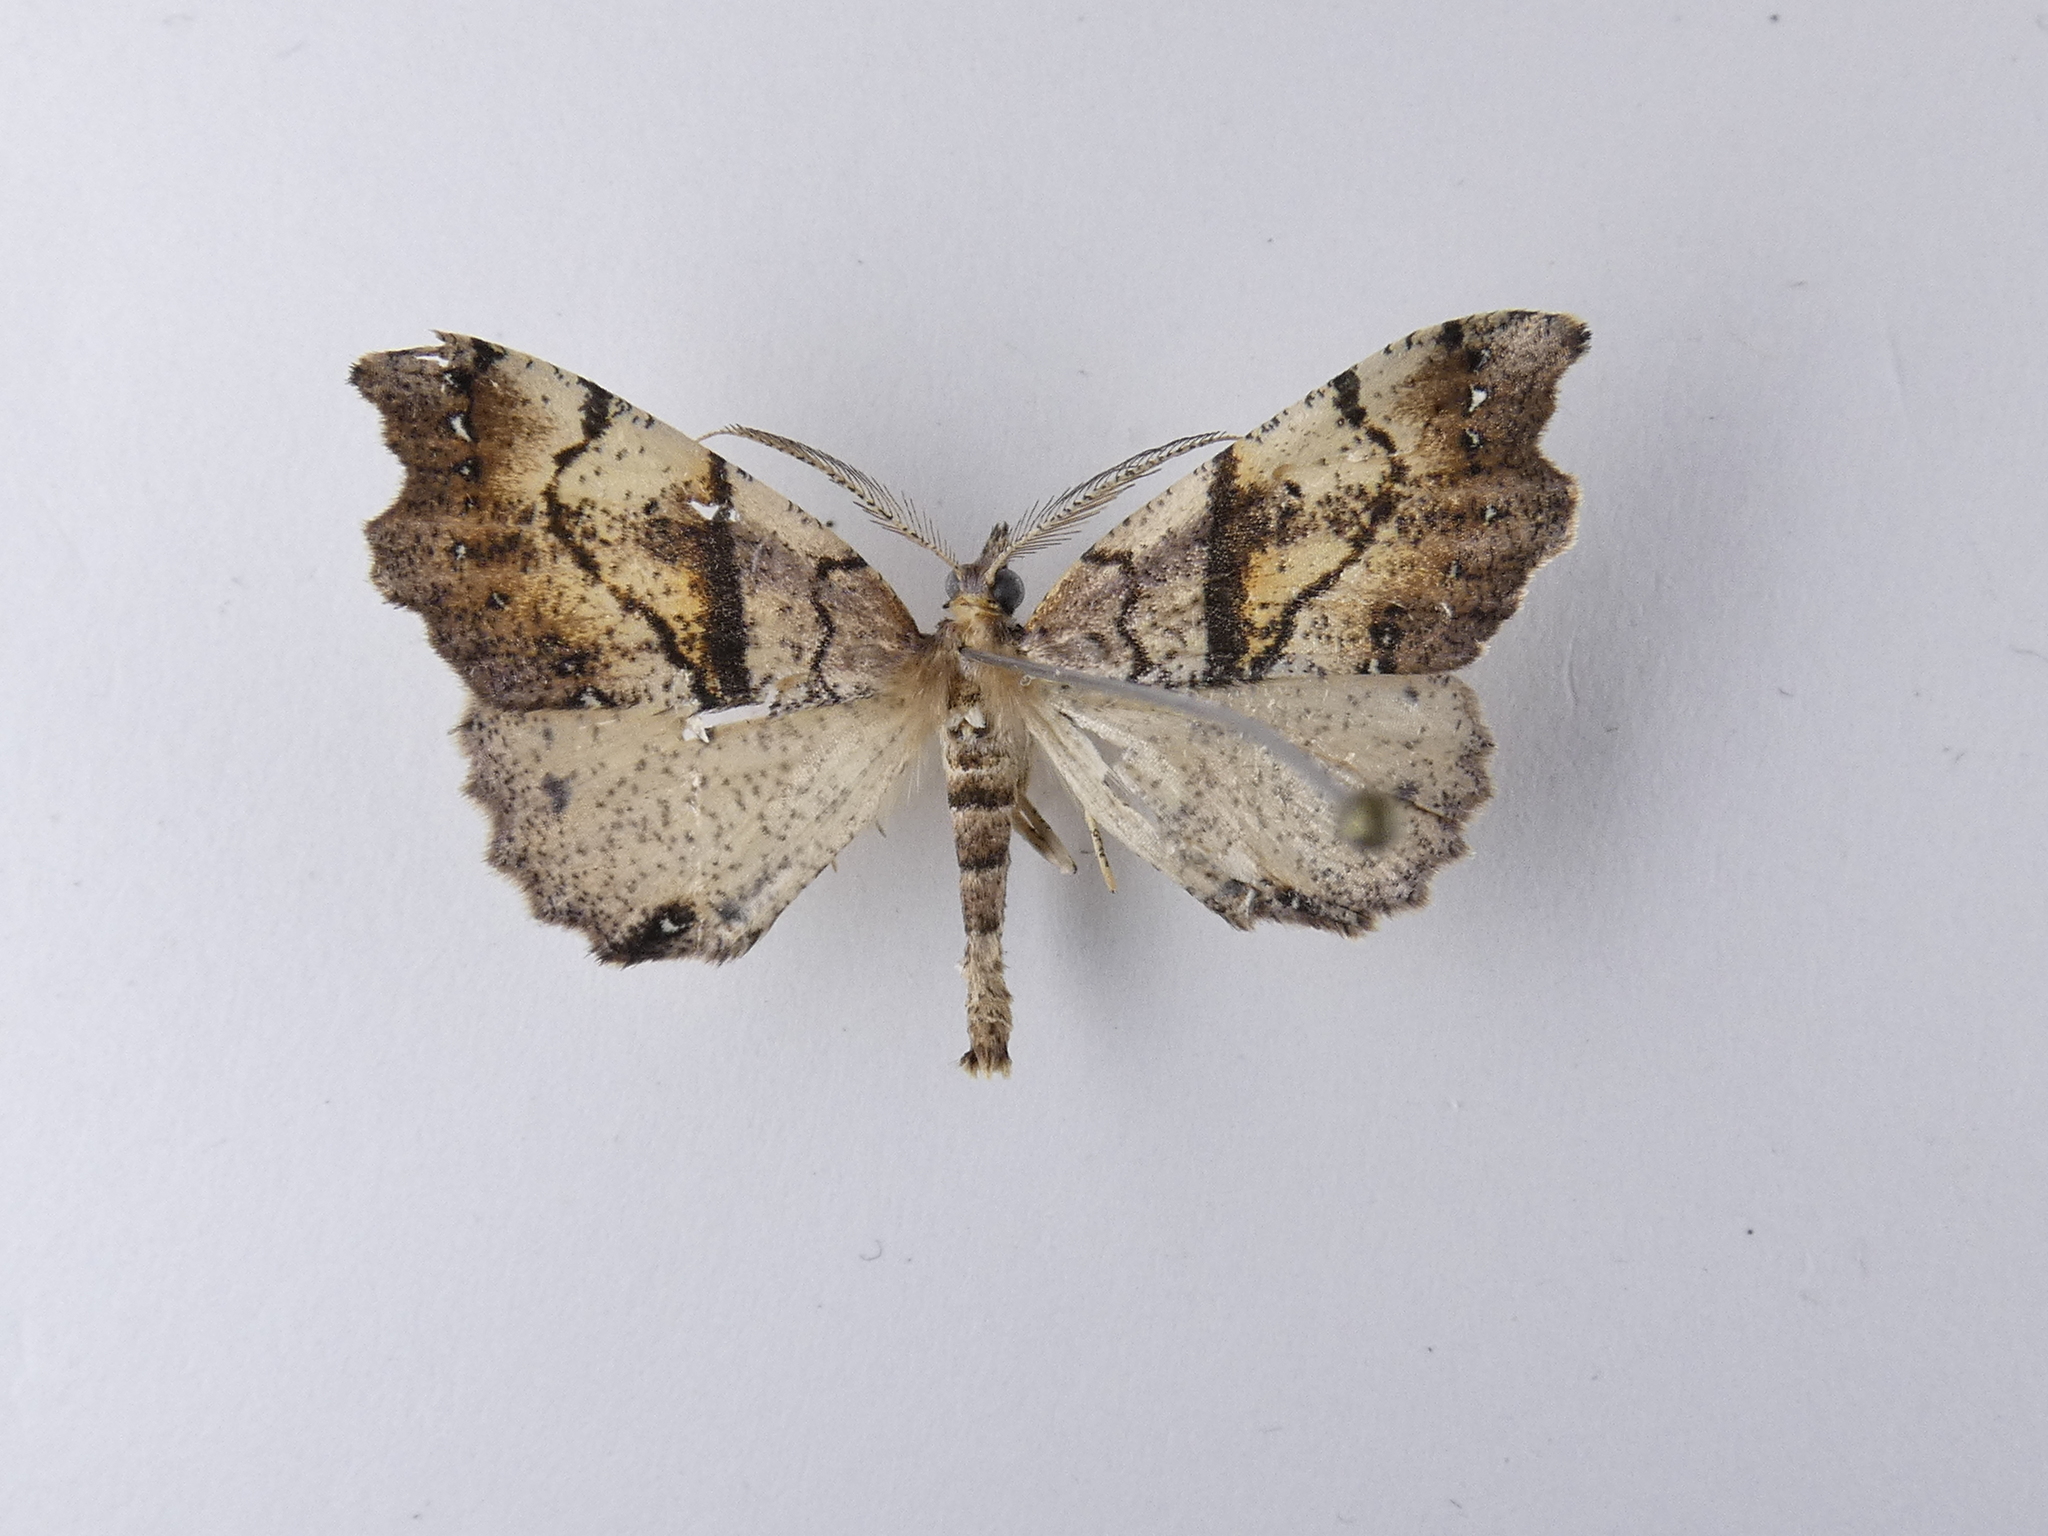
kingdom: Animalia
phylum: Arthropoda
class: Insecta
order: Lepidoptera
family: Geometridae
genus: Chalastra
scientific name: Chalastra pellurgata
